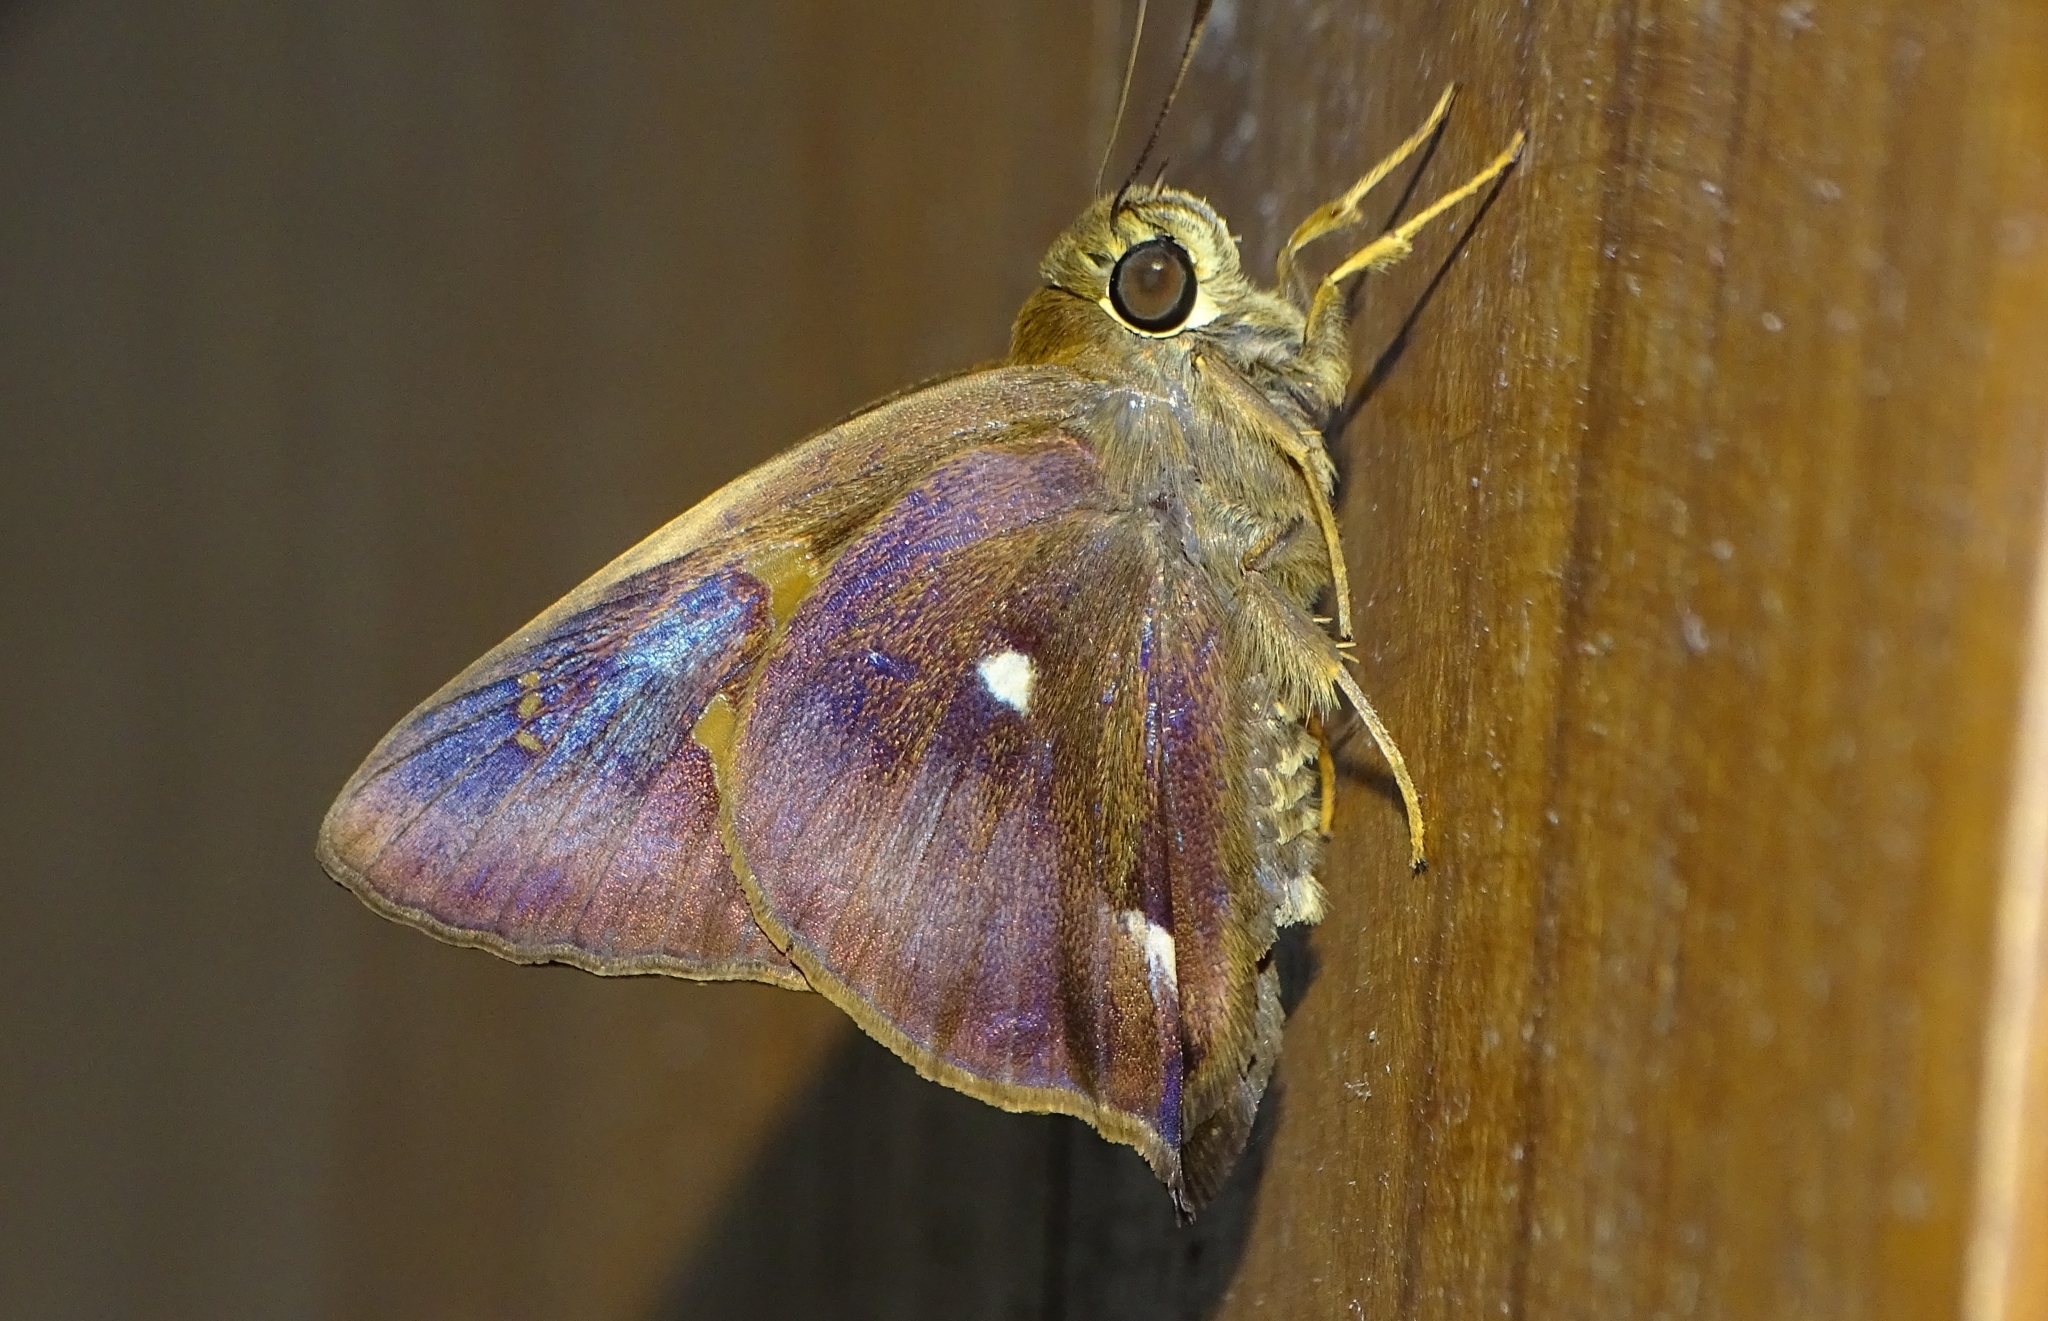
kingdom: Animalia
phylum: Arthropoda
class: Insecta
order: Lepidoptera
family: Hesperiidae
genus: Hasora
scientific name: Hasora badra
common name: Common awl
